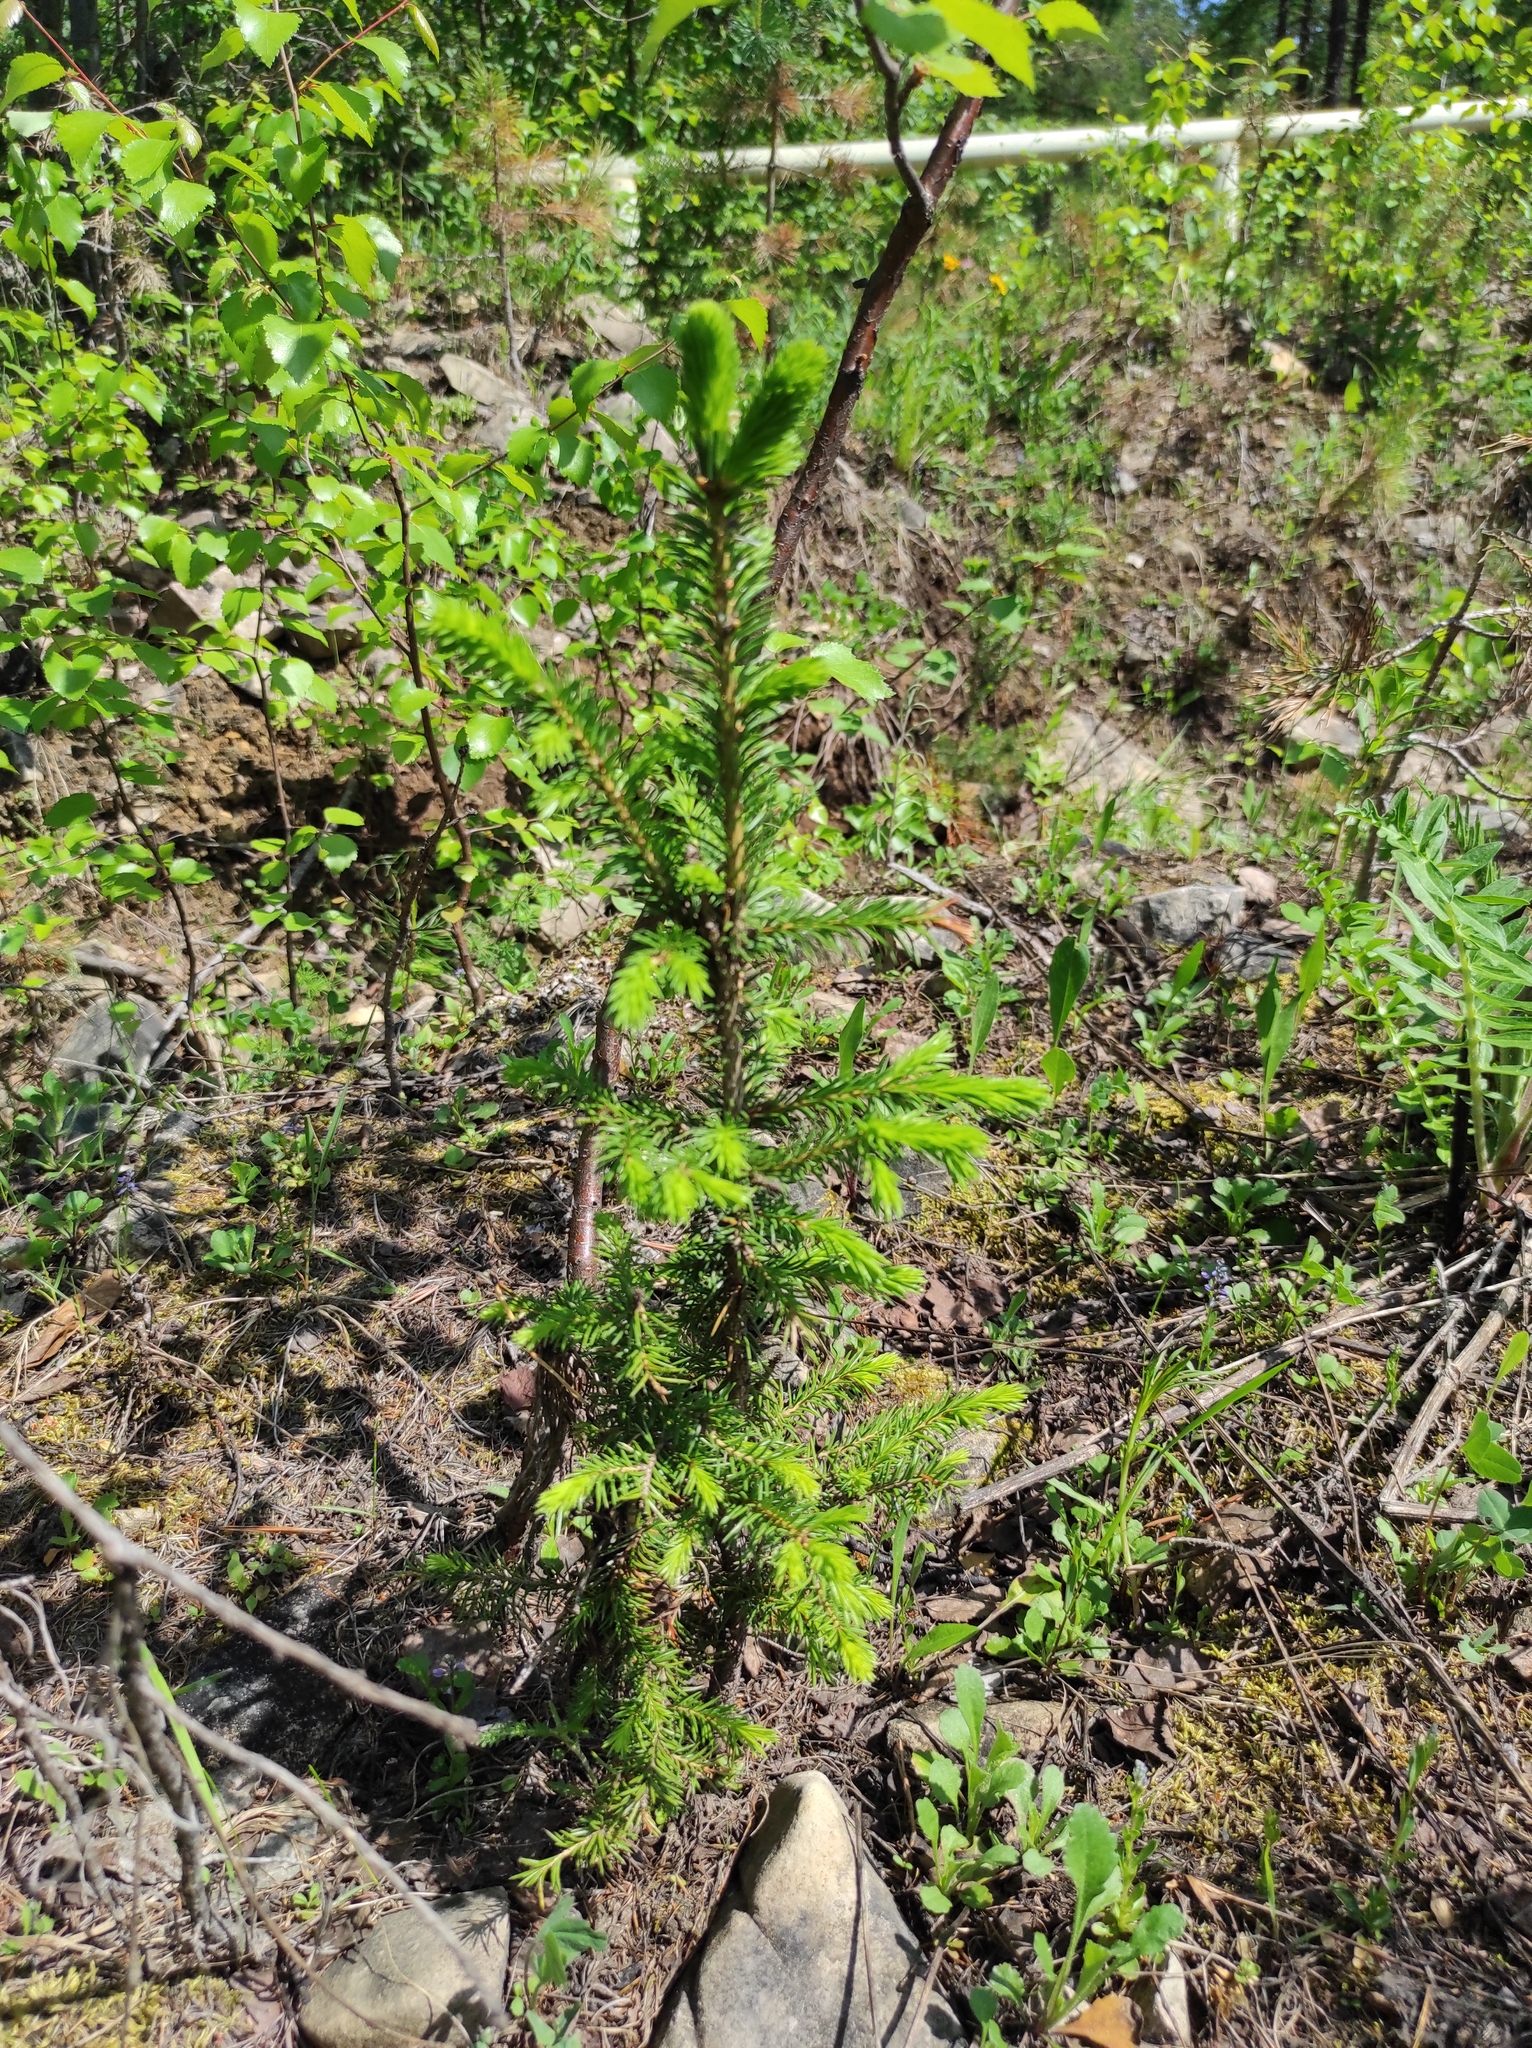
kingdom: Plantae
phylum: Tracheophyta
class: Pinopsida
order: Pinales
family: Pinaceae
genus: Picea
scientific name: Picea obovata
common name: Siberian spruce
